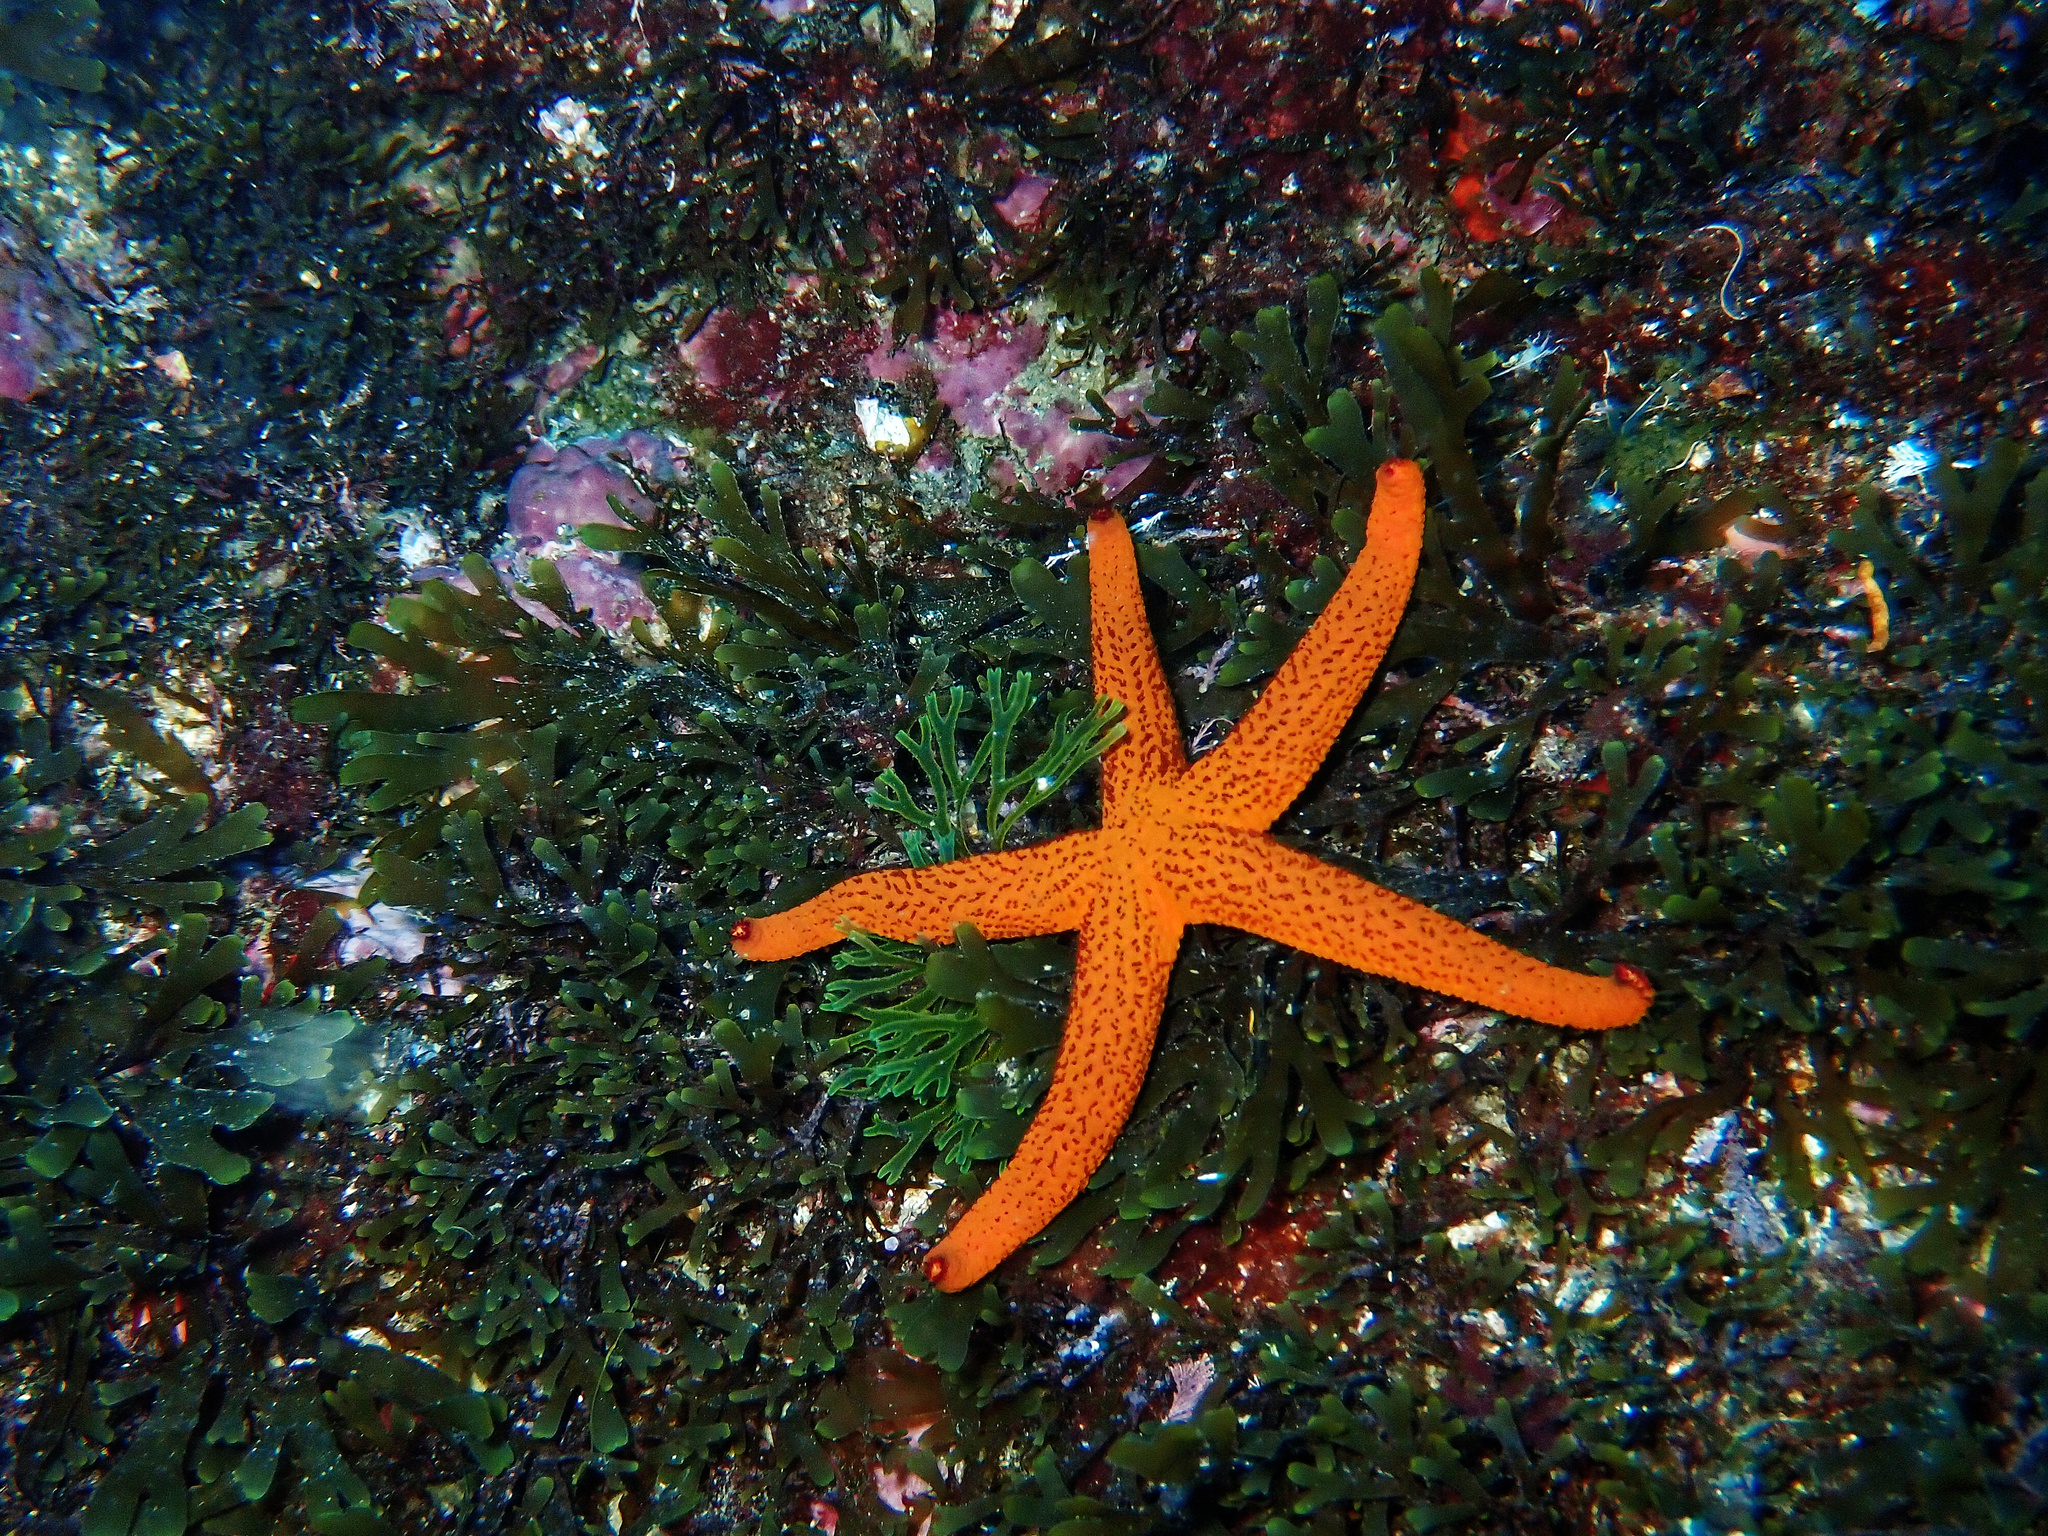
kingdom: Animalia
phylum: Echinodermata
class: Asteroidea
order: Spinulosida
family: Echinasteridae
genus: Echinaster
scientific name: Echinaster sepositus
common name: Red starfish
